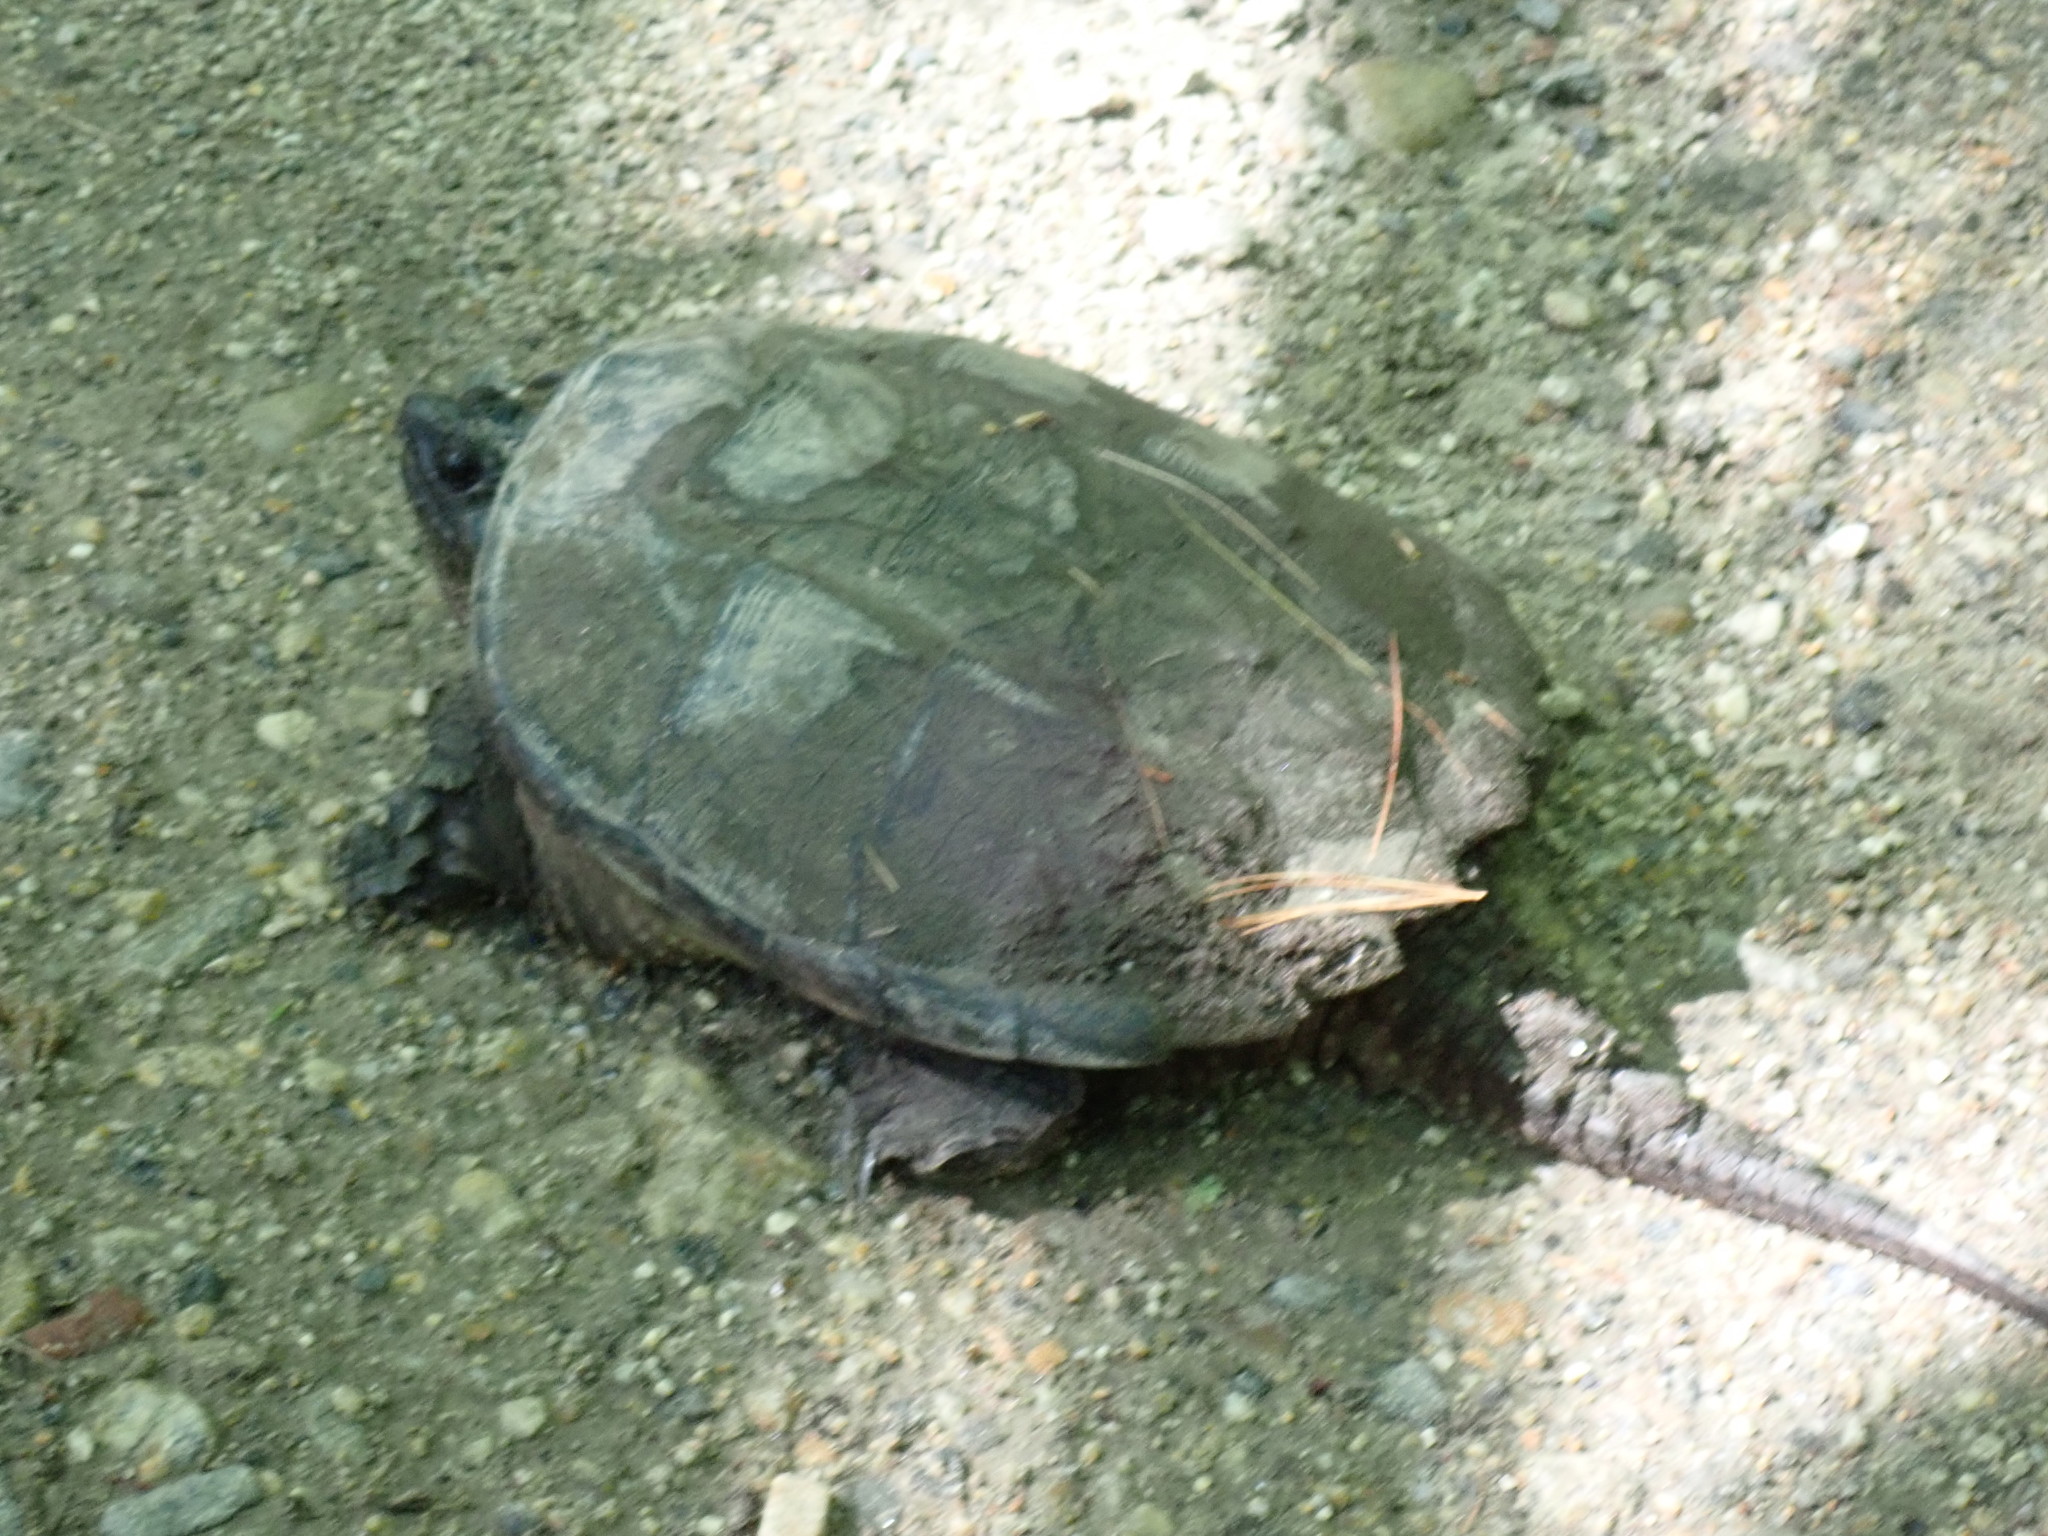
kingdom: Animalia
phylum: Chordata
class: Testudines
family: Chelydridae
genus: Chelydra
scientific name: Chelydra serpentina
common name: Common snapping turtle
